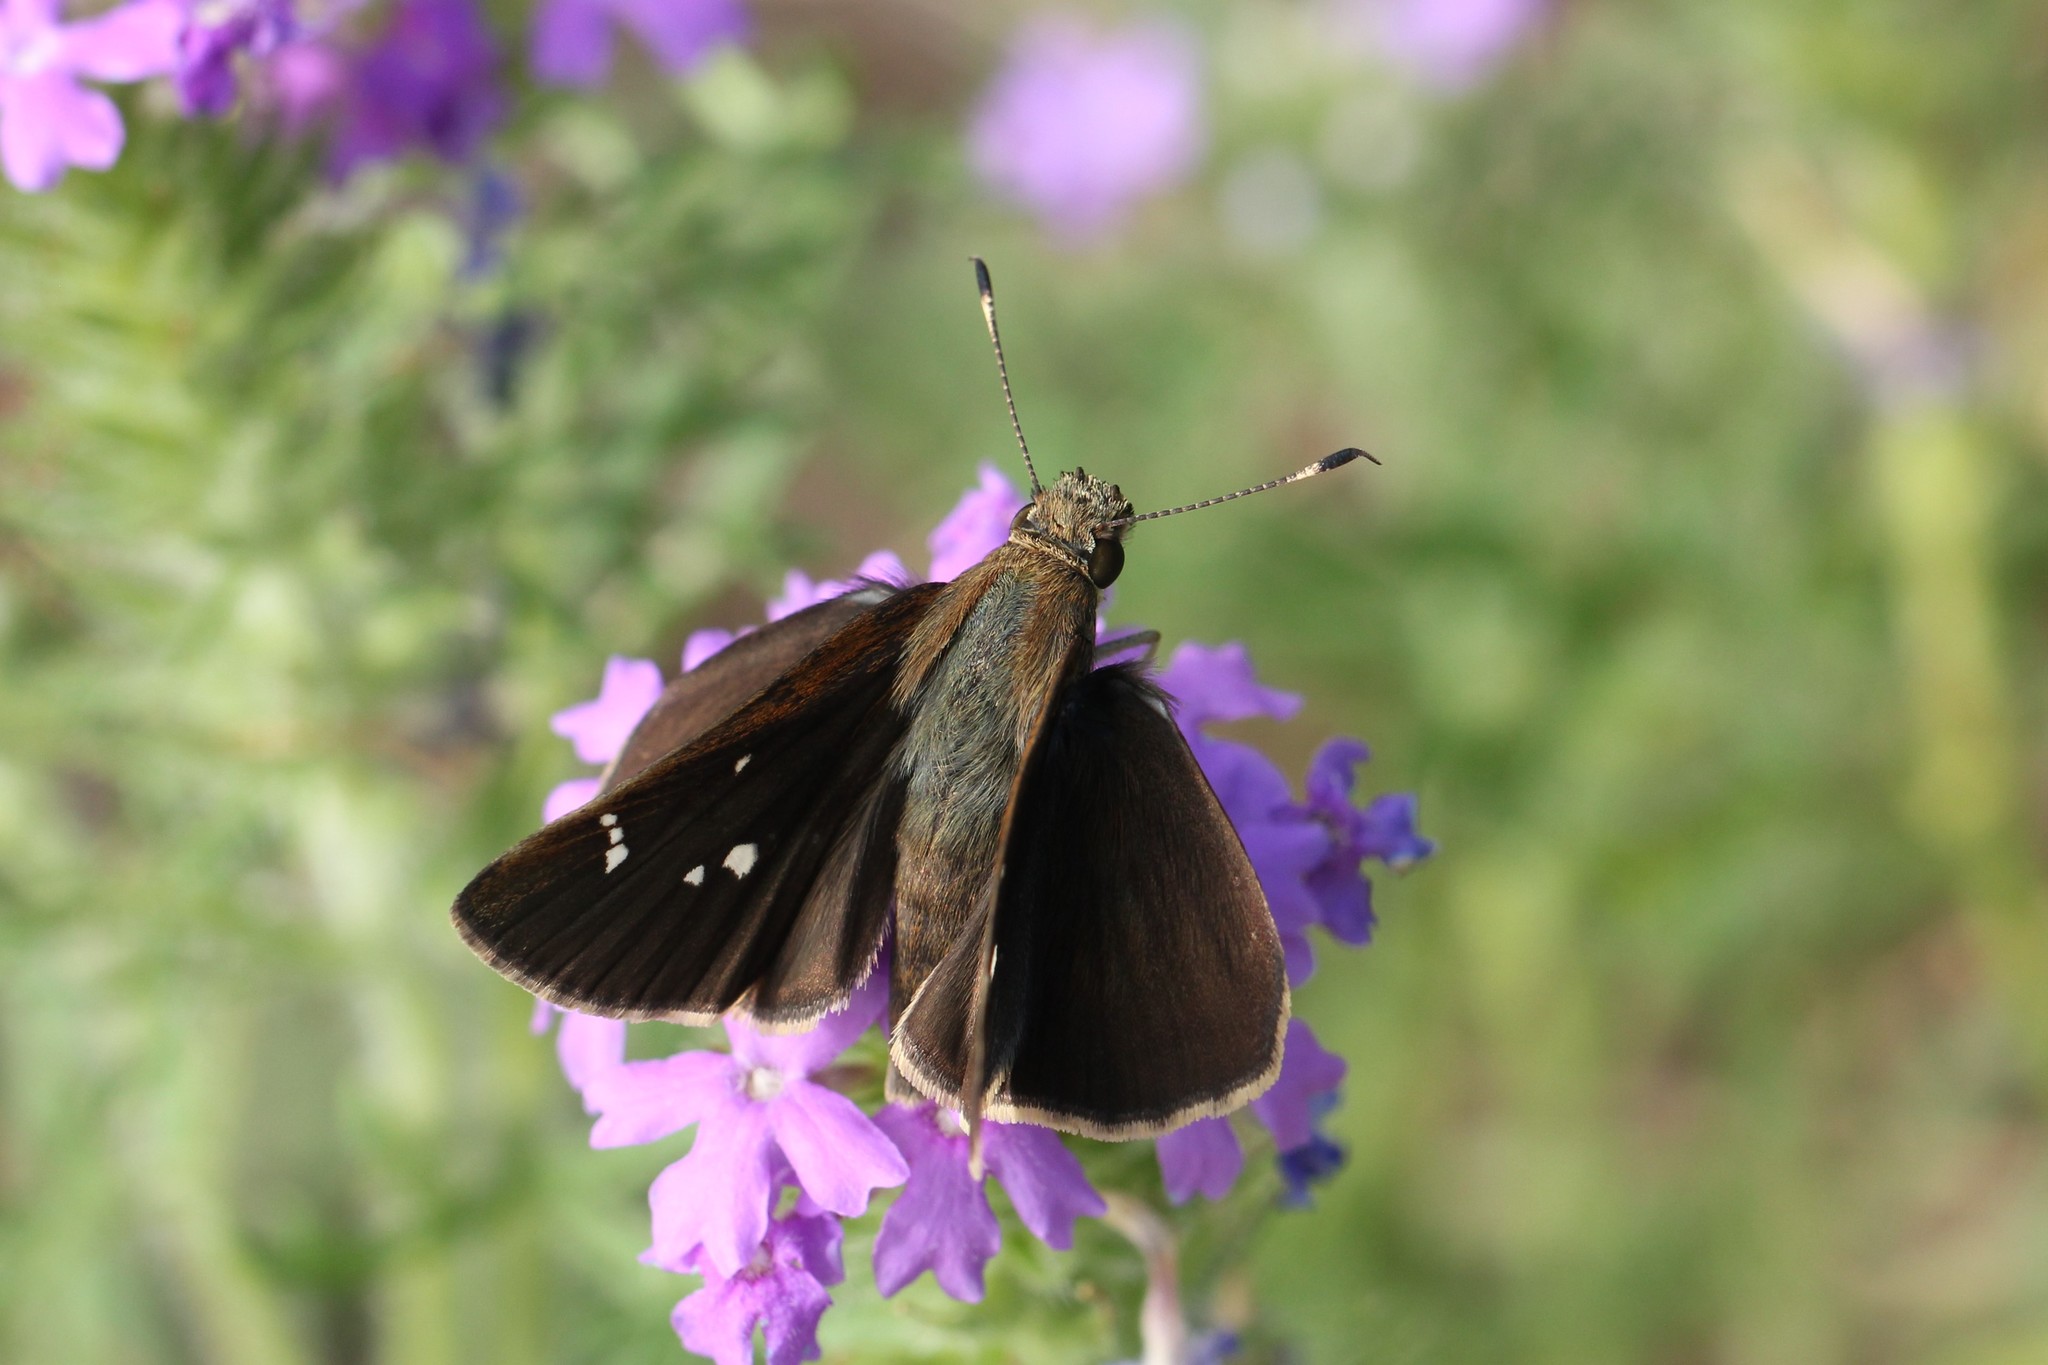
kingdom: Animalia
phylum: Arthropoda
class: Insecta
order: Lepidoptera
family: Hesperiidae
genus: Lerema
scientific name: Lerema accius
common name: Clouded skipper
